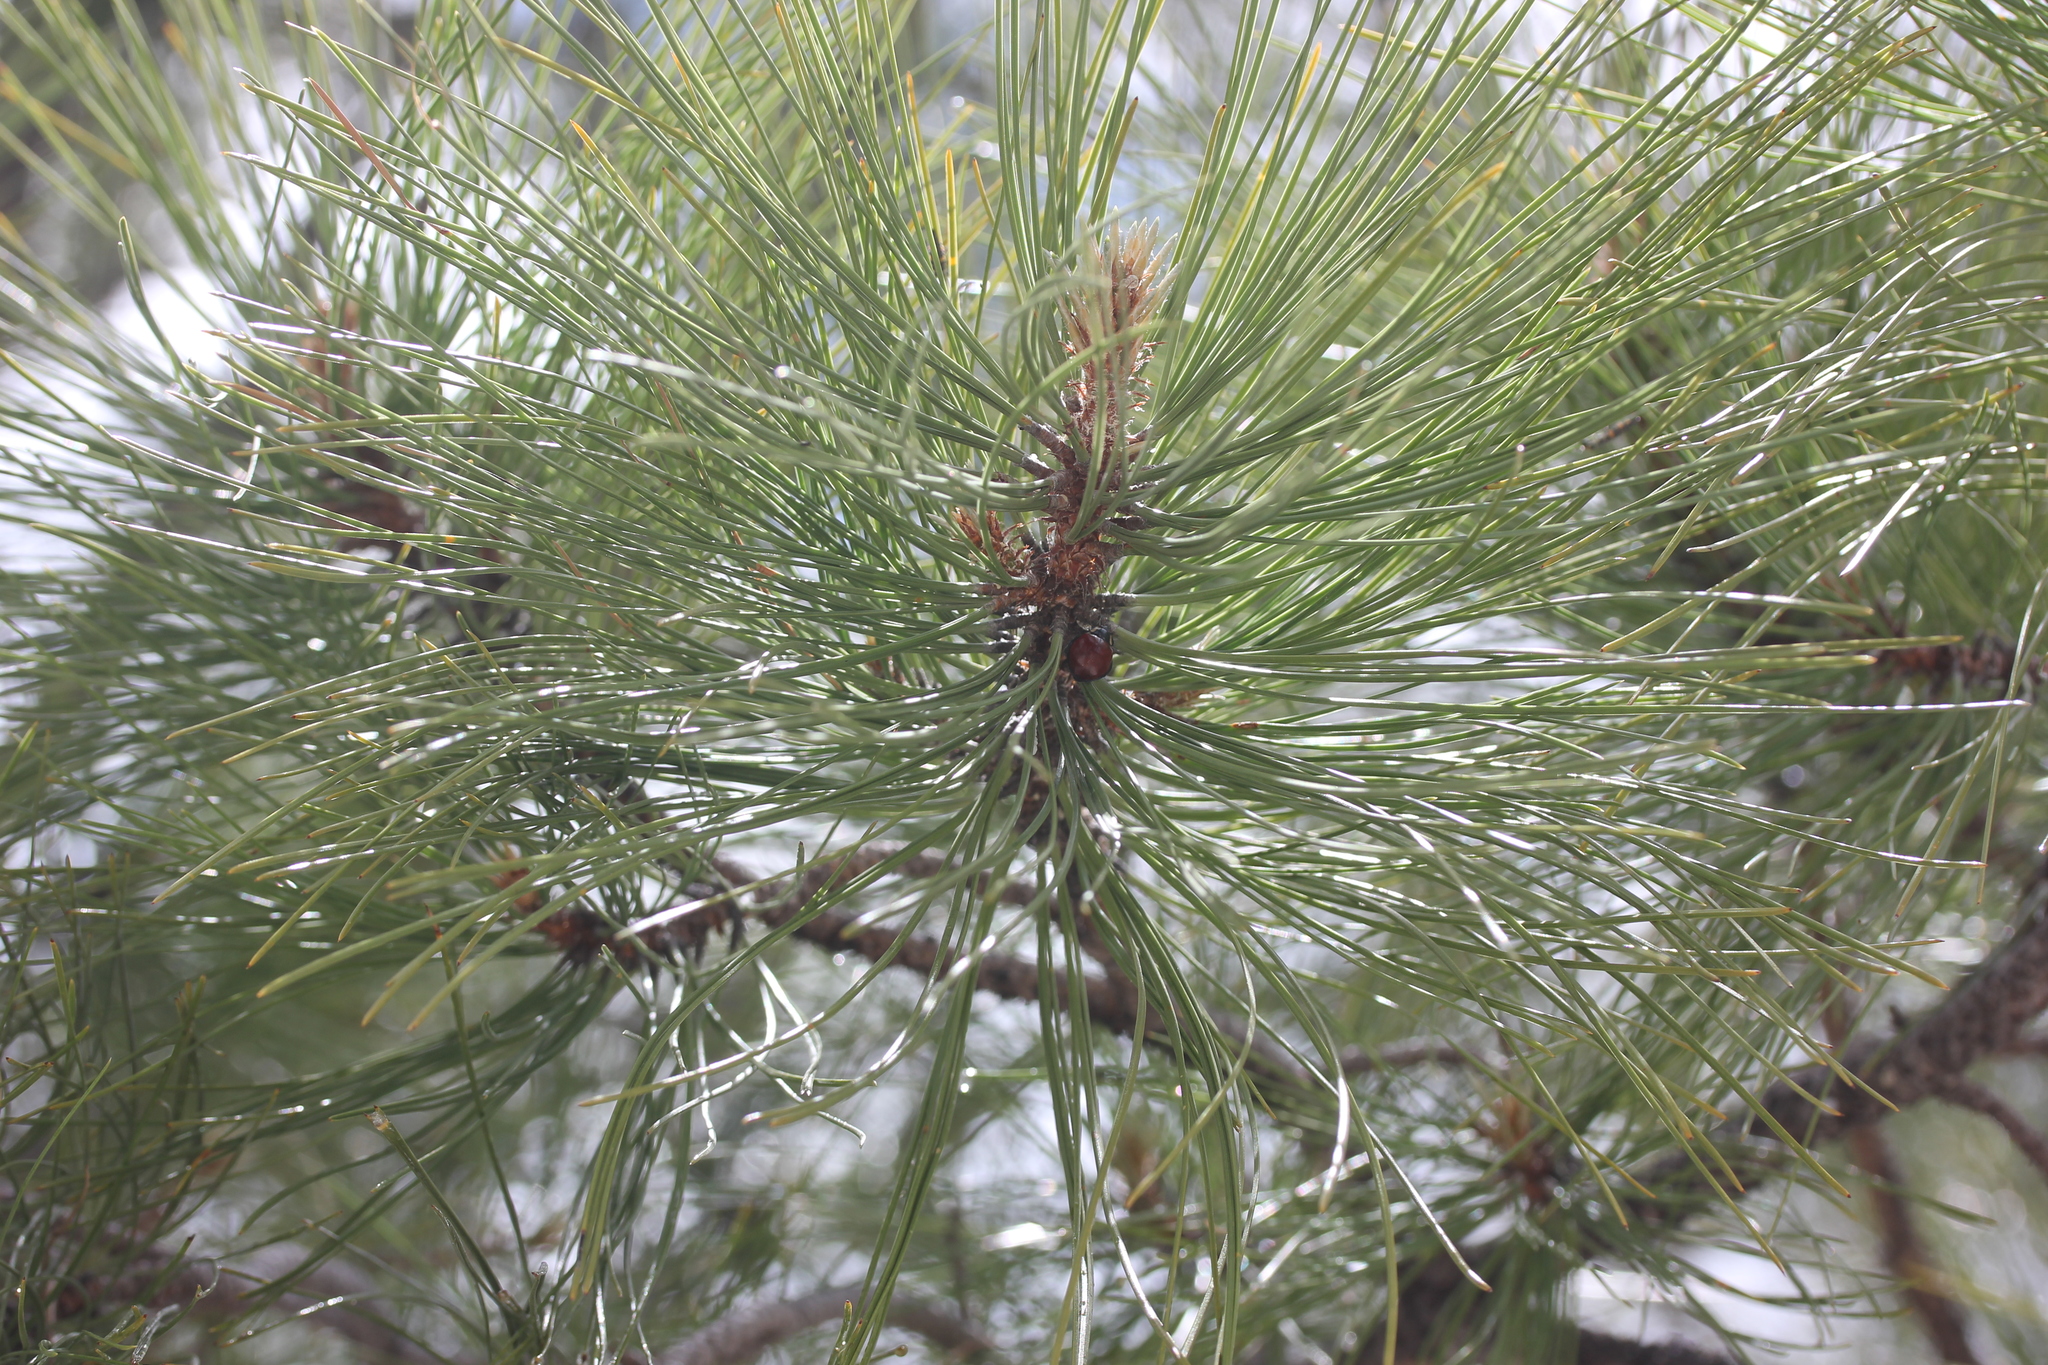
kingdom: Plantae
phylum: Tracheophyta
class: Pinopsida
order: Pinales
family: Pinaceae
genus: Pinus
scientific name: Pinus ponderosa
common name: Western yellow-pine
